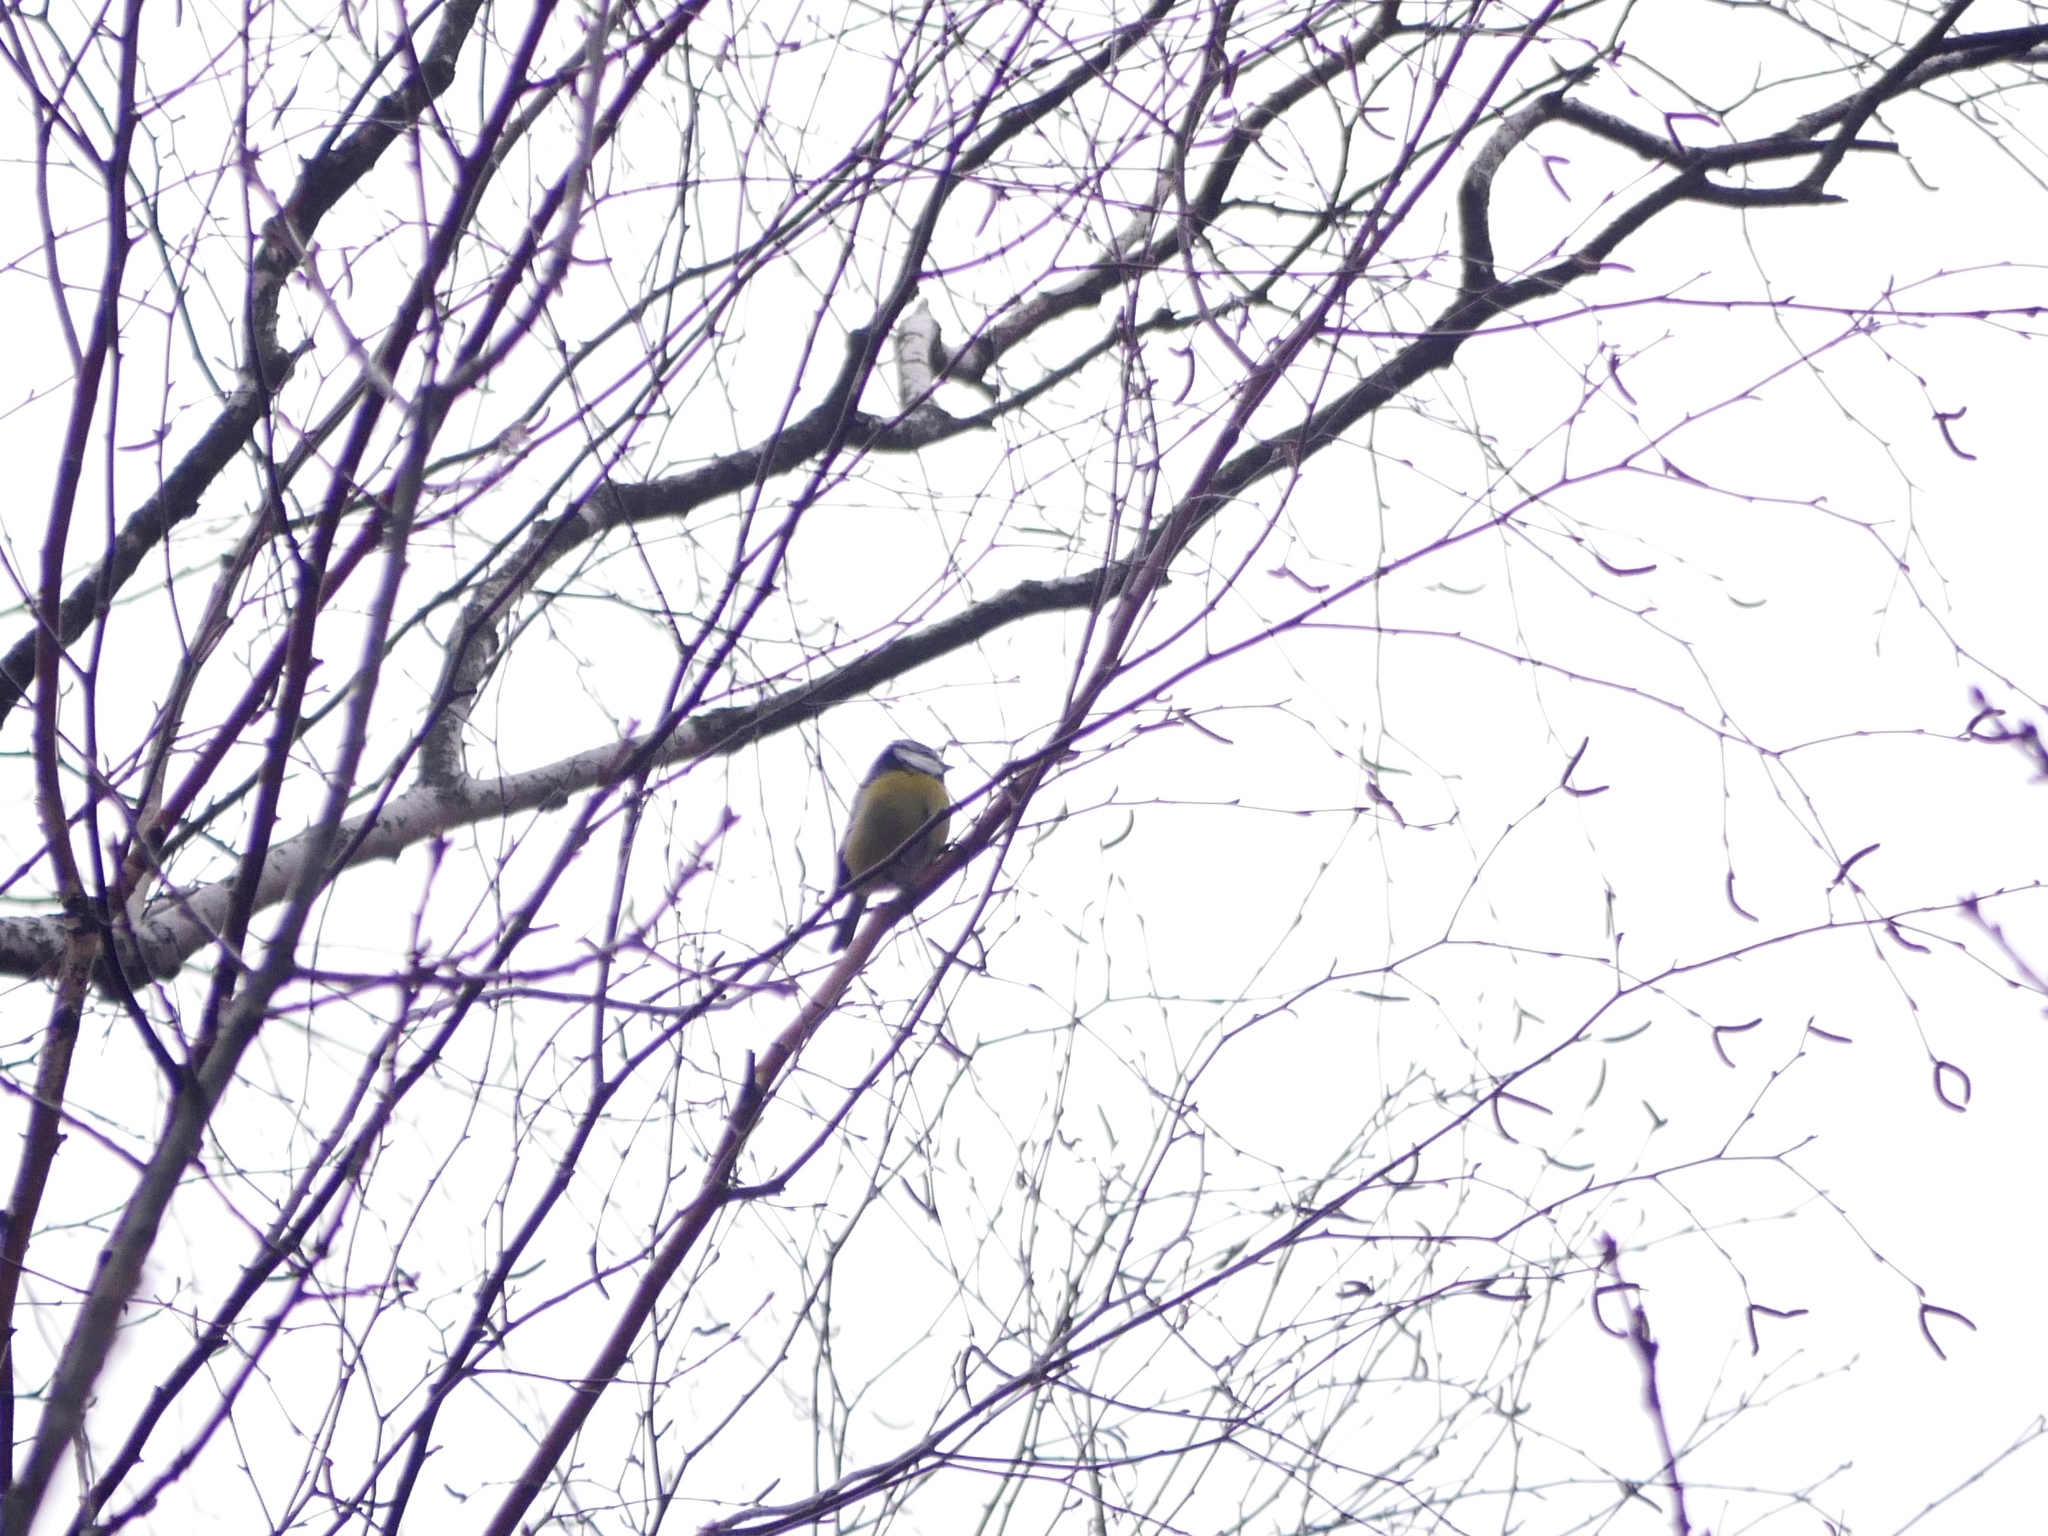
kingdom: Animalia
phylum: Chordata
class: Aves
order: Passeriformes
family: Paridae
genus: Cyanistes
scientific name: Cyanistes caeruleus
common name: Eurasian blue tit
